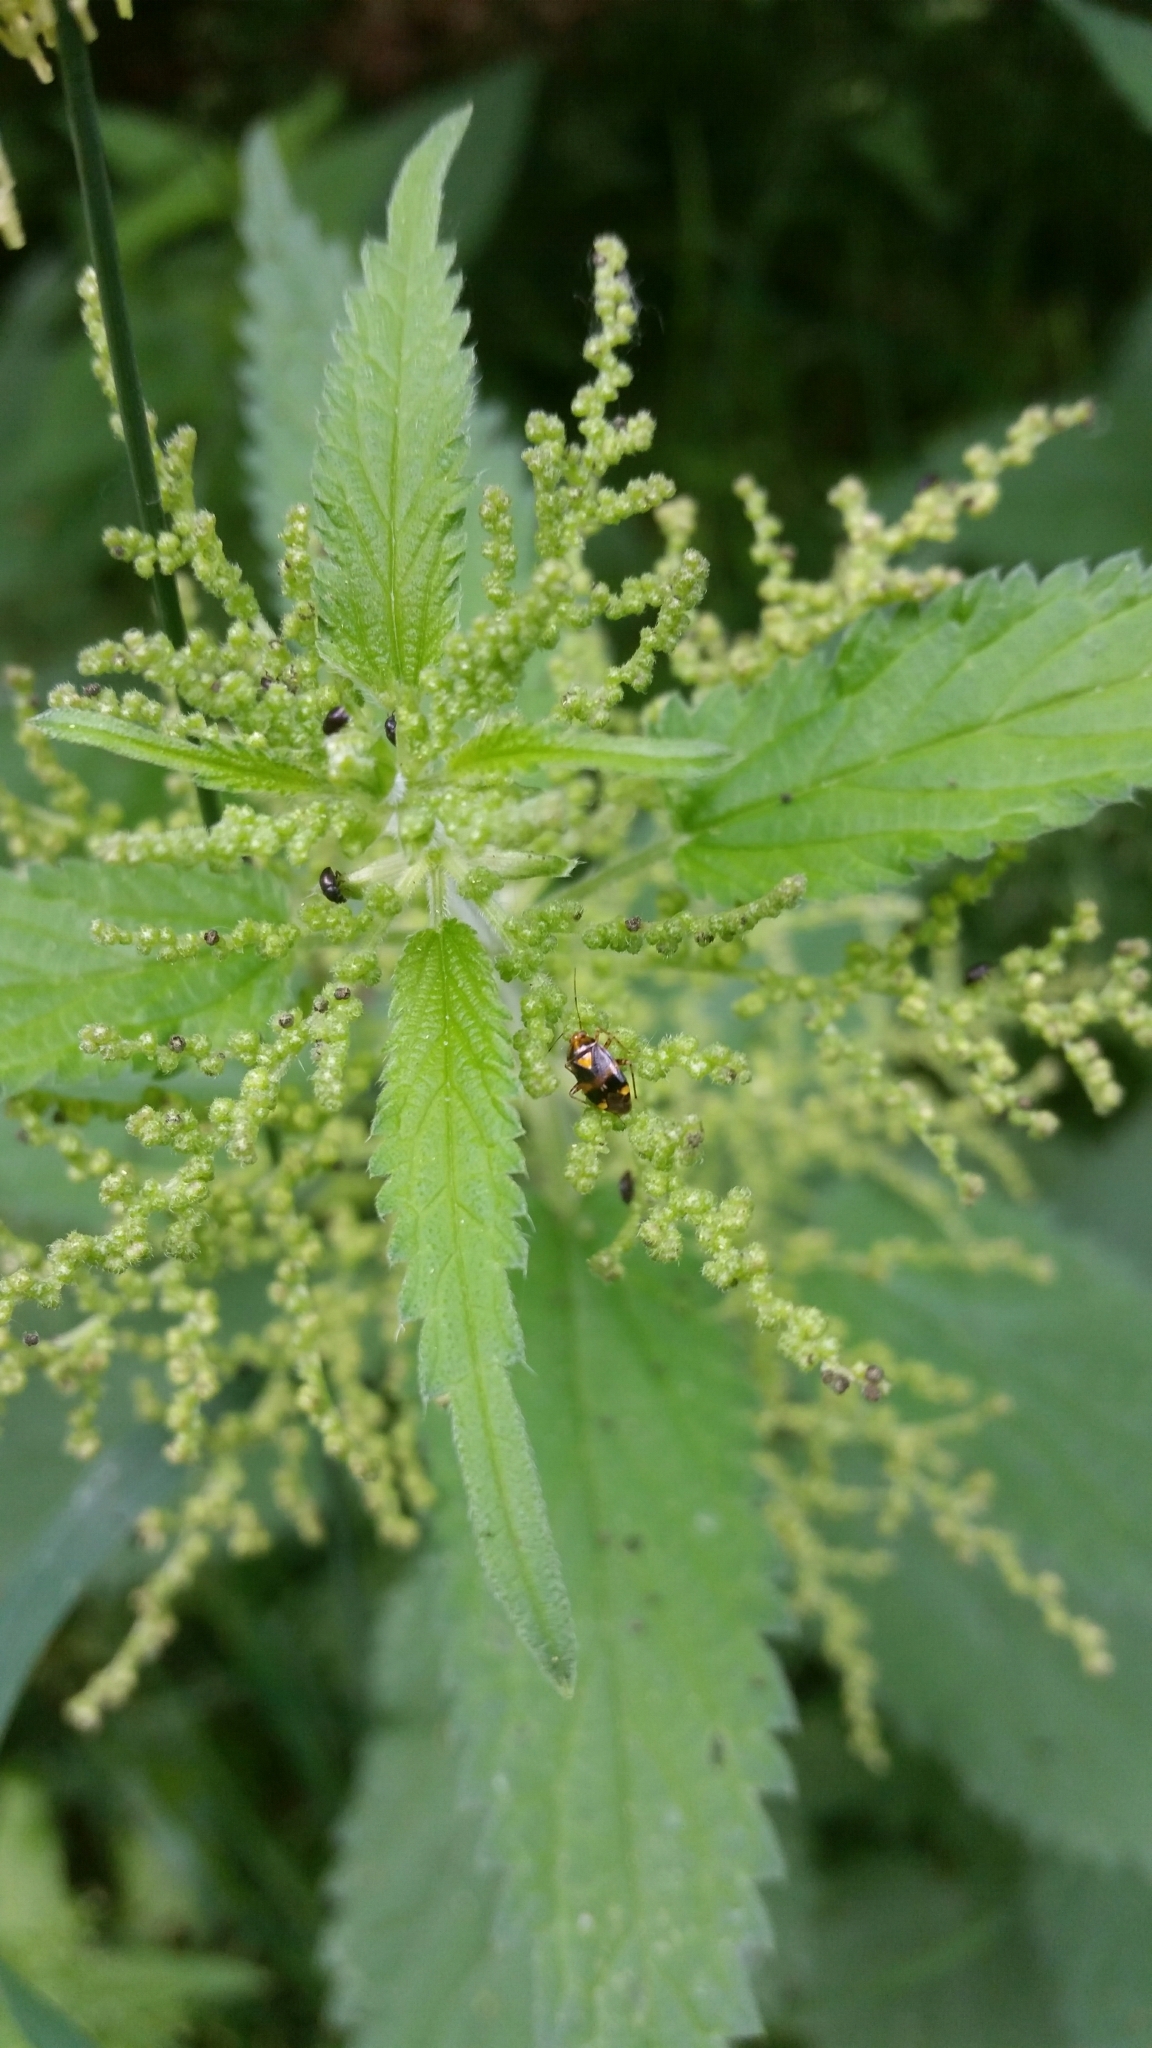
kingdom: Animalia
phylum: Arthropoda
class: Insecta
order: Hemiptera
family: Miridae
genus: Liocoris
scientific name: Liocoris tripustulatus
